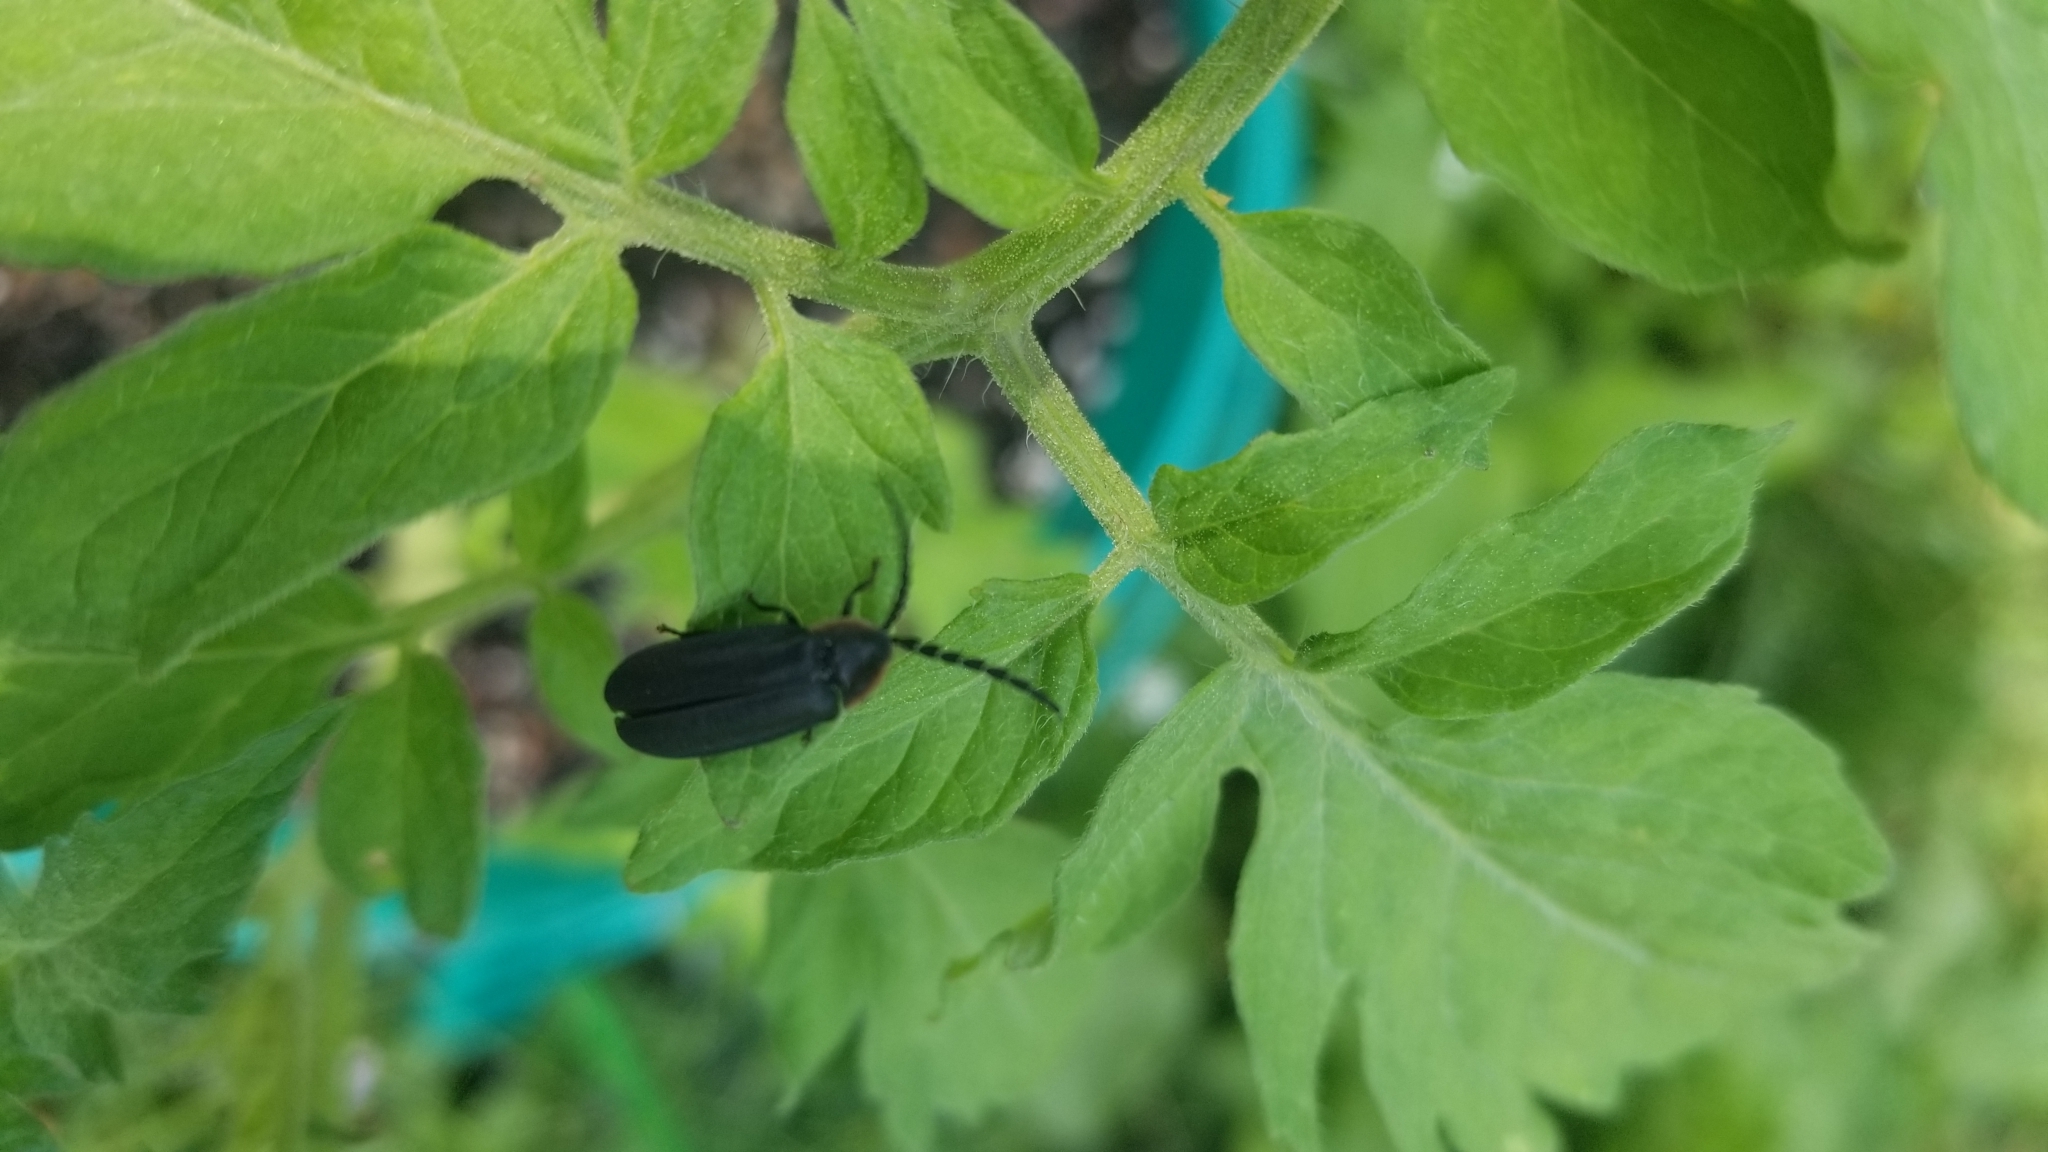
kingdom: Animalia
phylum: Arthropoda
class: Insecta
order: Coleoptera
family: Lampyridae
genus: Lucidota
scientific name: Lucidota atra
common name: Black firefly
